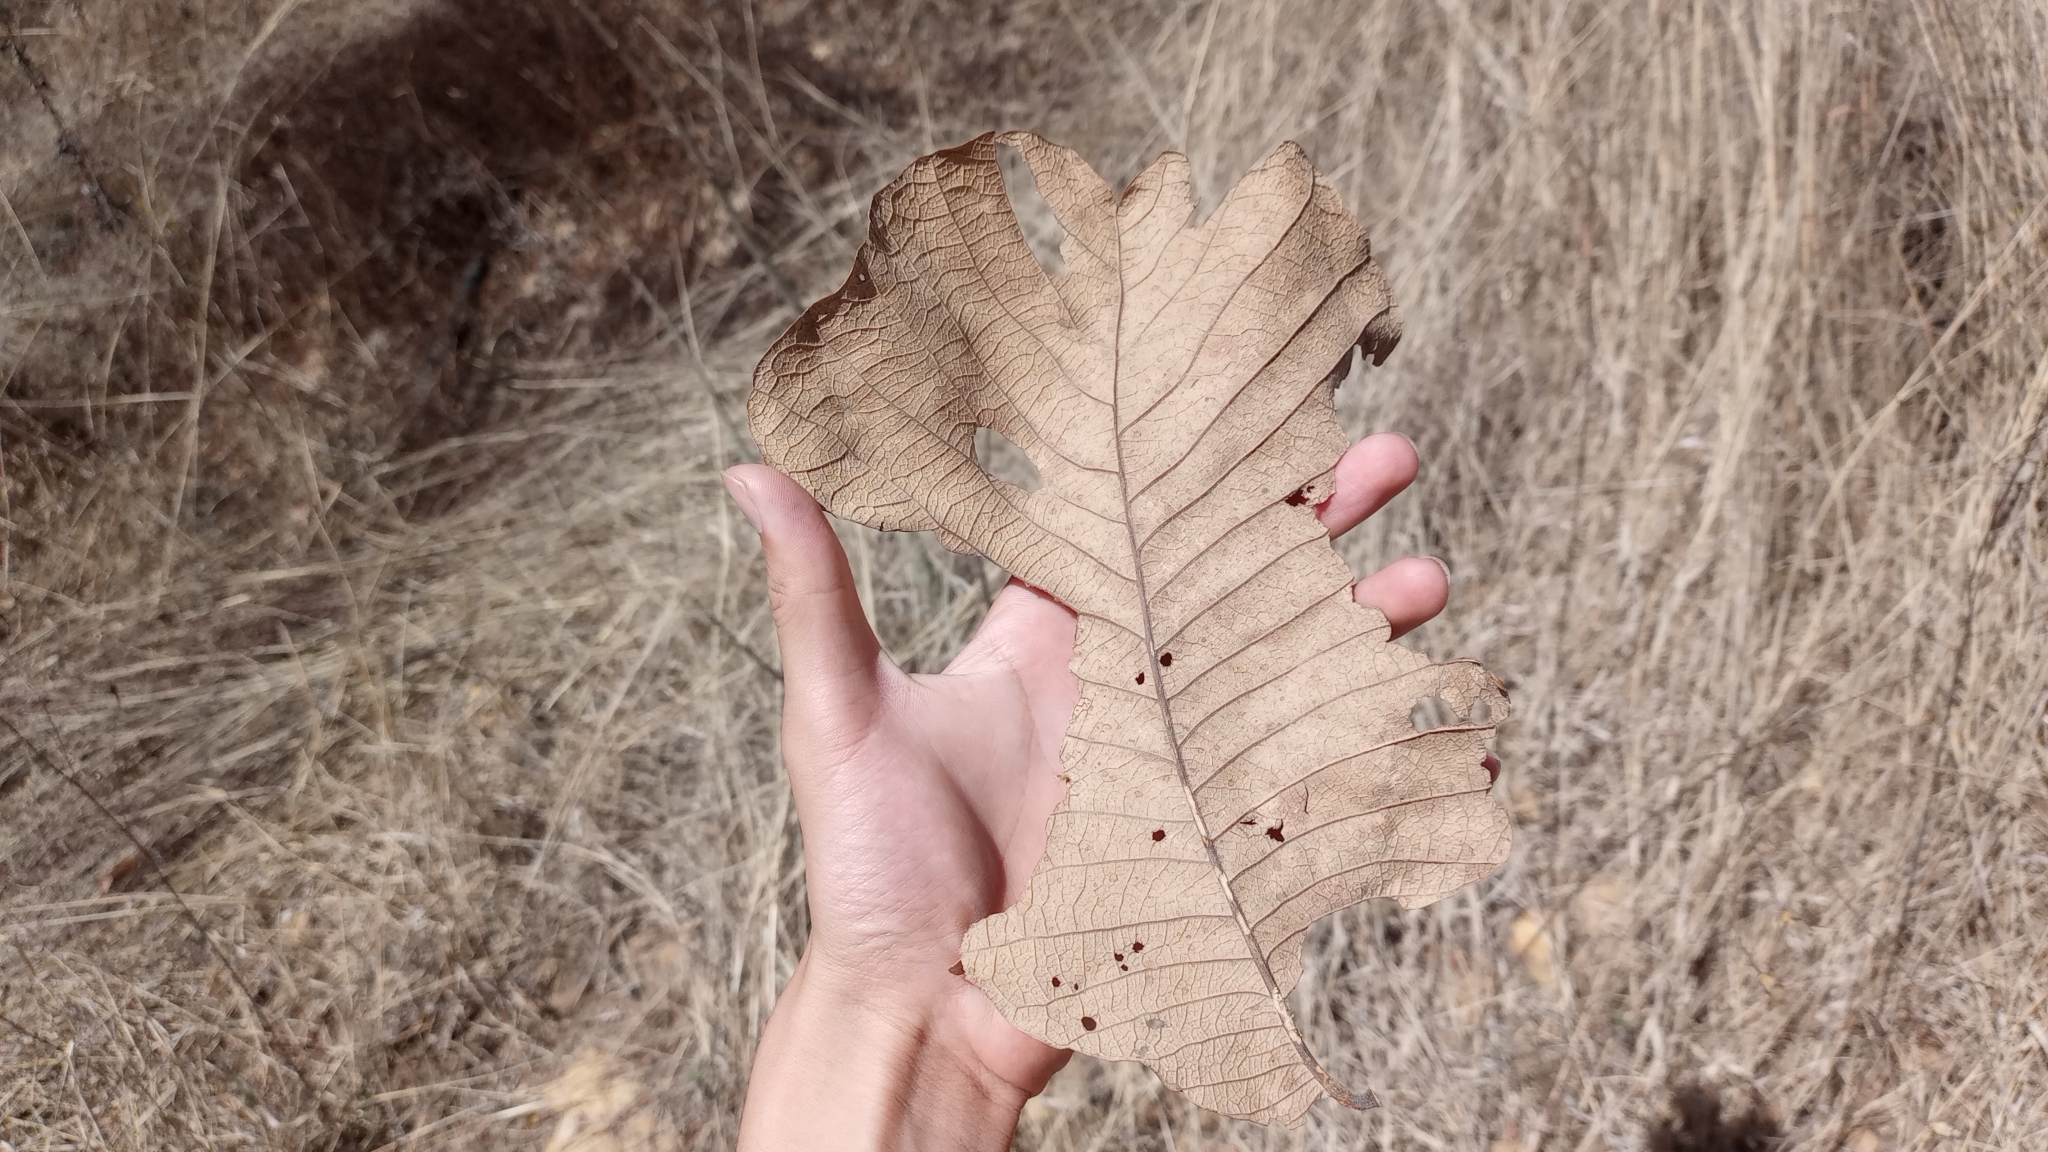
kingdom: Plantae
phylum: Tracheophyta
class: Magnoliopsida
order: Fagales
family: Fagaceae
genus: Quercus
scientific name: Quercus resinosa
